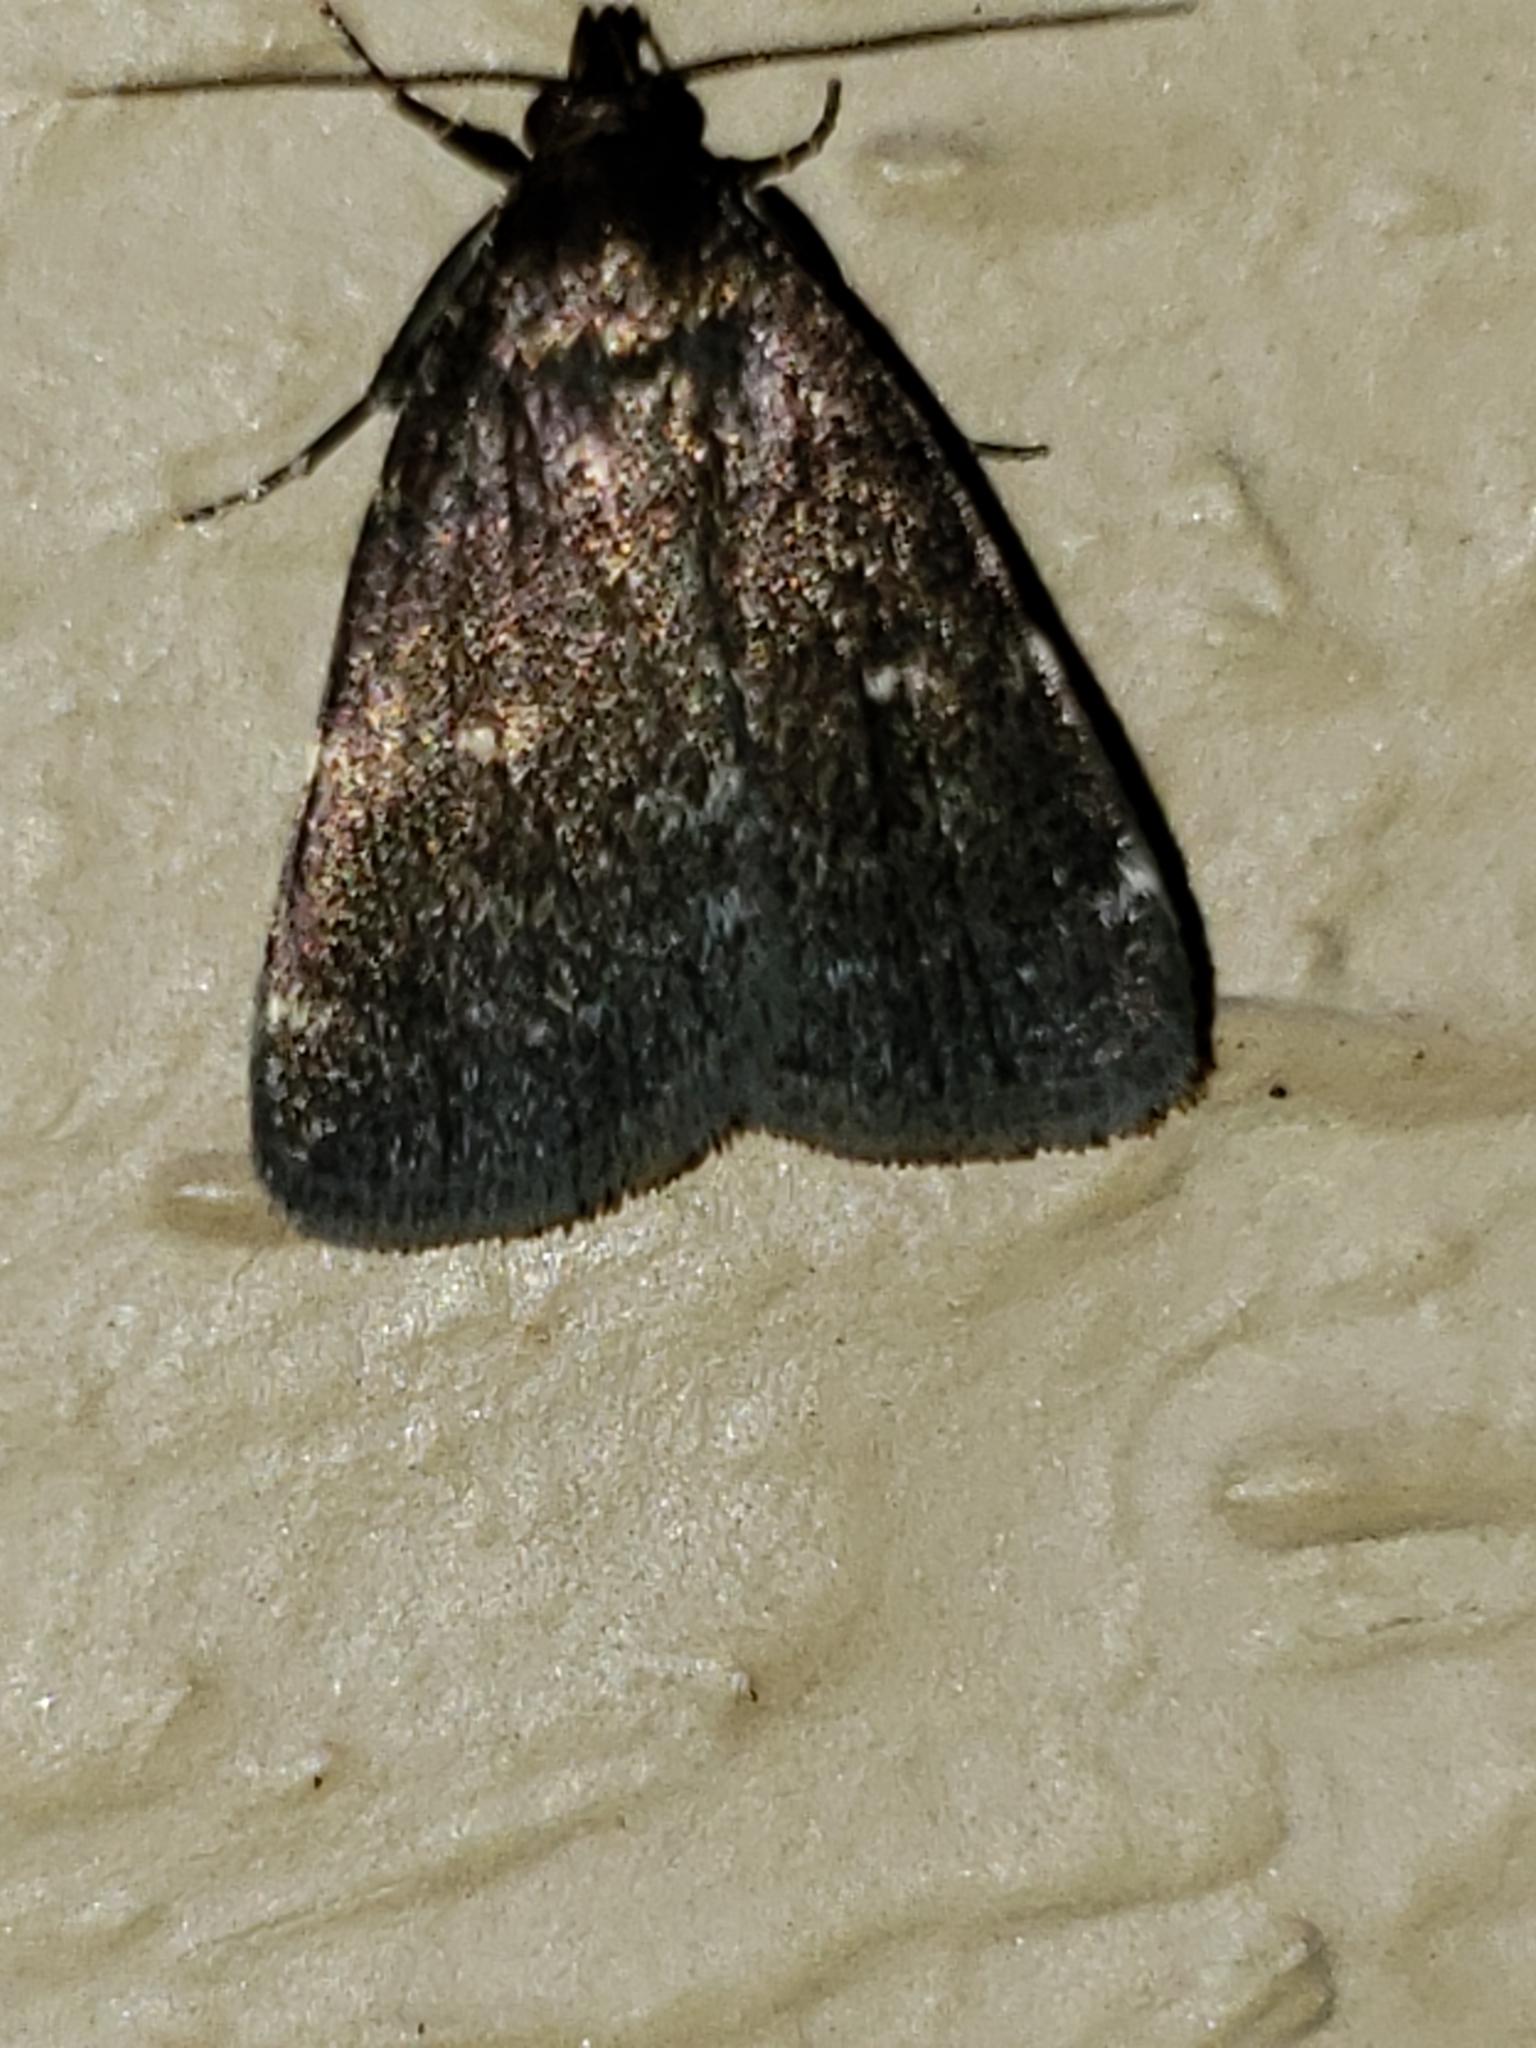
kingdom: Animalia
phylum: Arthropoda
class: Insecta
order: Lepidoptera
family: Erebidae
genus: Idia
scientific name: Idia julia
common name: Julia's idia moth
